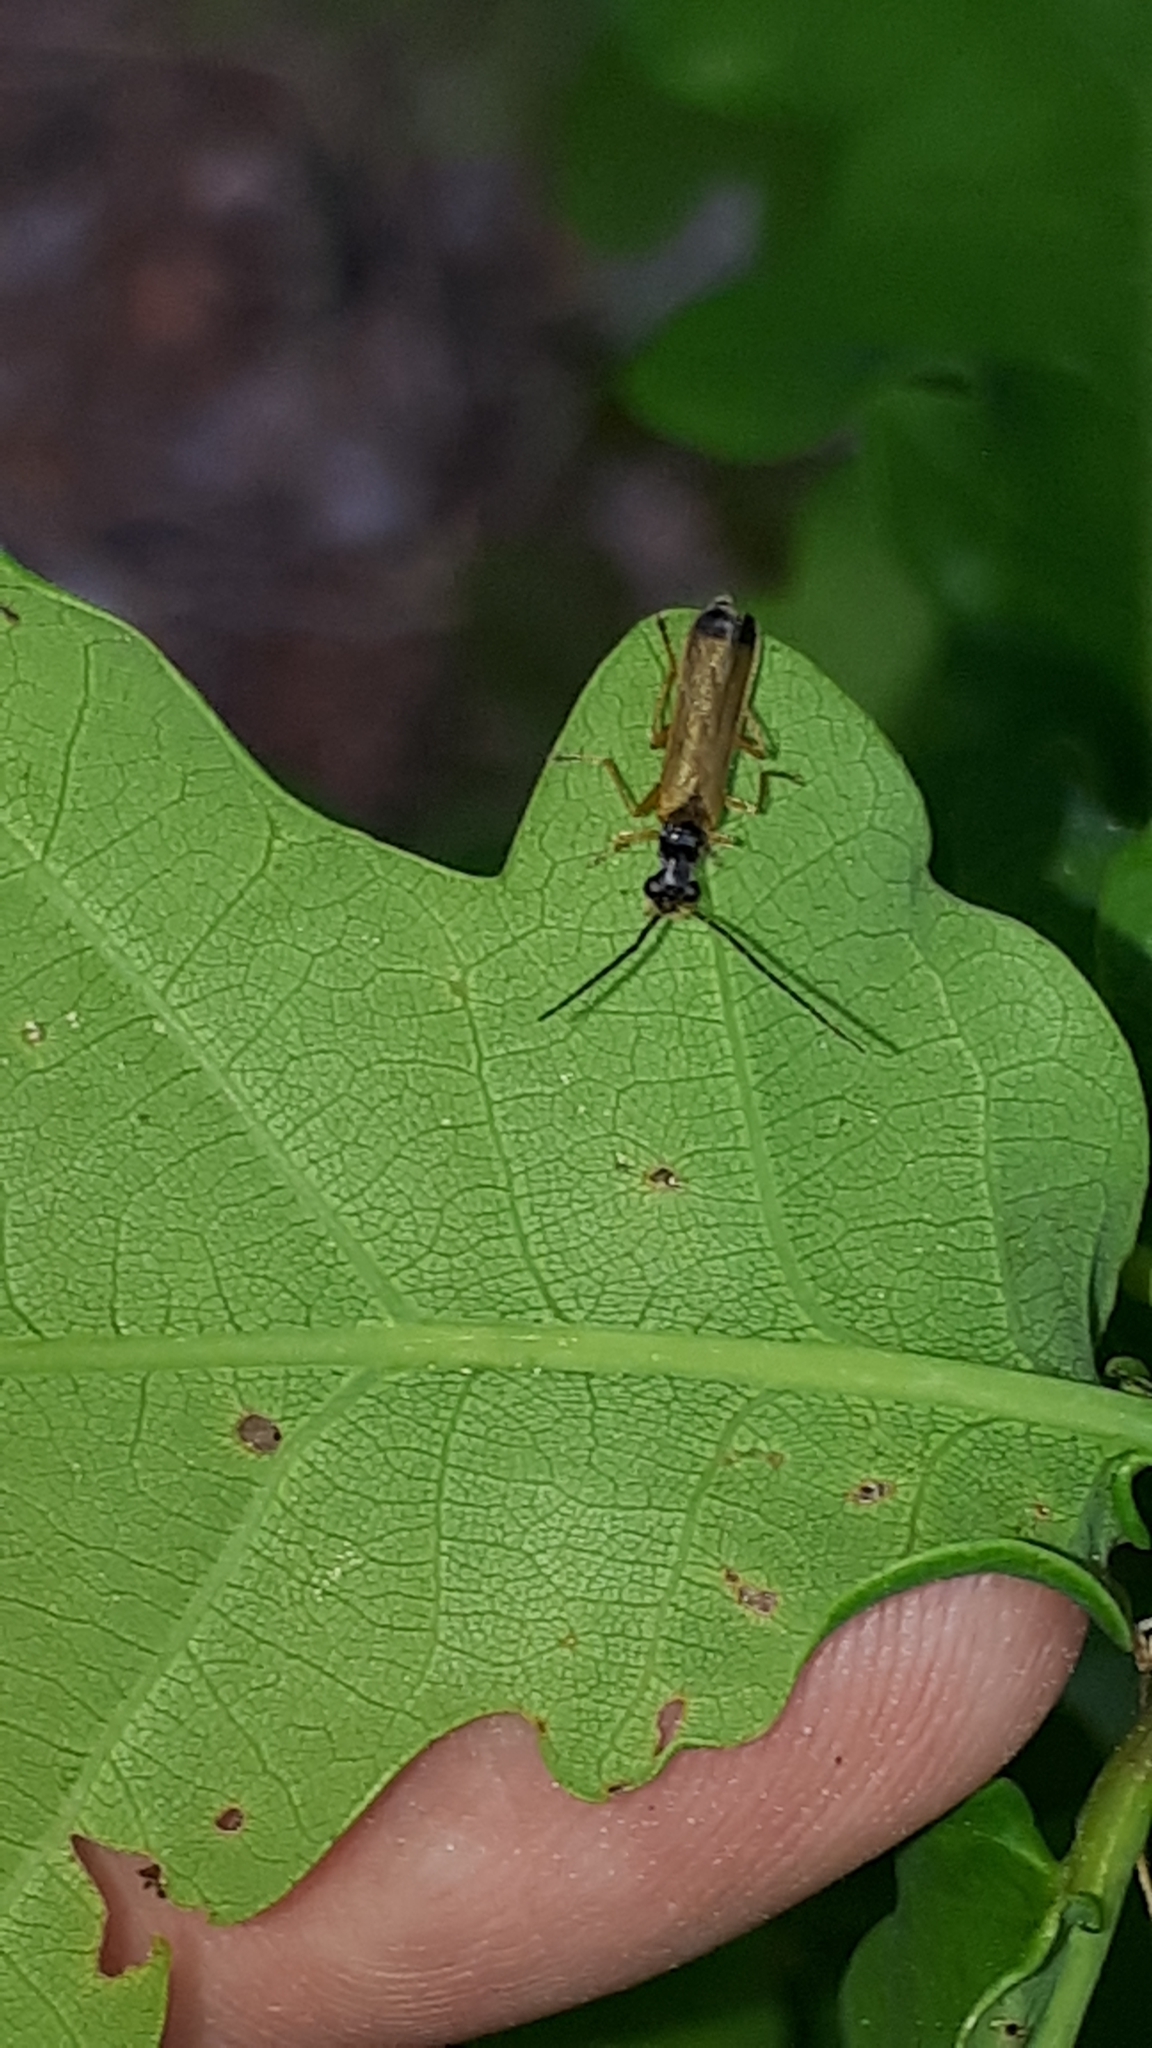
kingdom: Animalia
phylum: Arthropoda
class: Insecta
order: Coleoptera
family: Cantharidae
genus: Rhagonycha
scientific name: Rhagonycha lignosa
